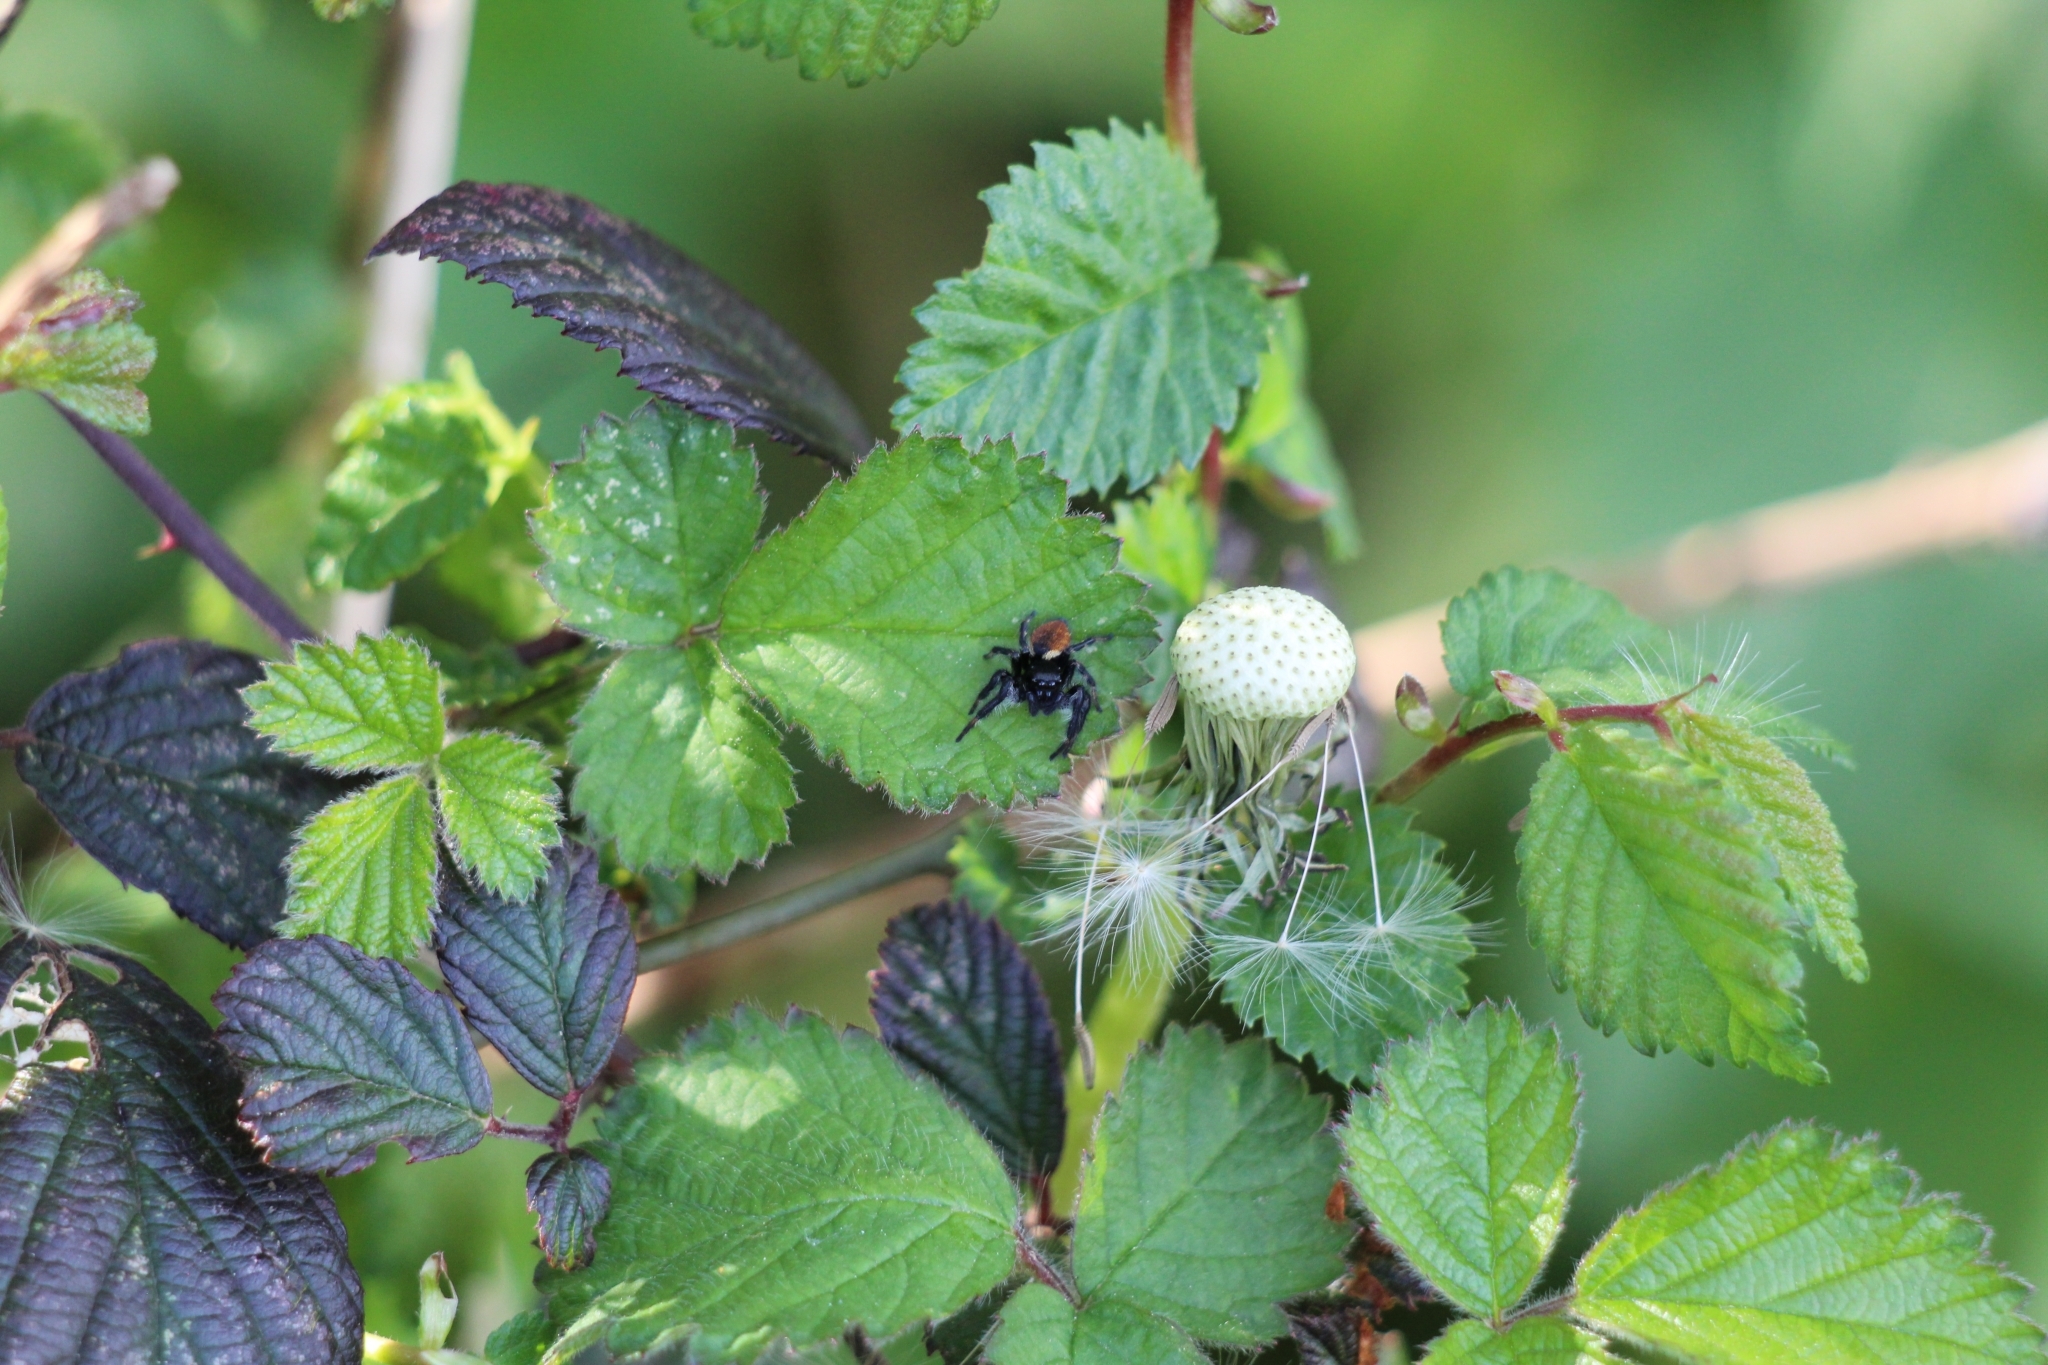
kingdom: Animalia
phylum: Arthropoda
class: Arachnida
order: Araneae
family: Salticidae
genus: Carrhotus
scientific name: Carrhotus xanthogramma
